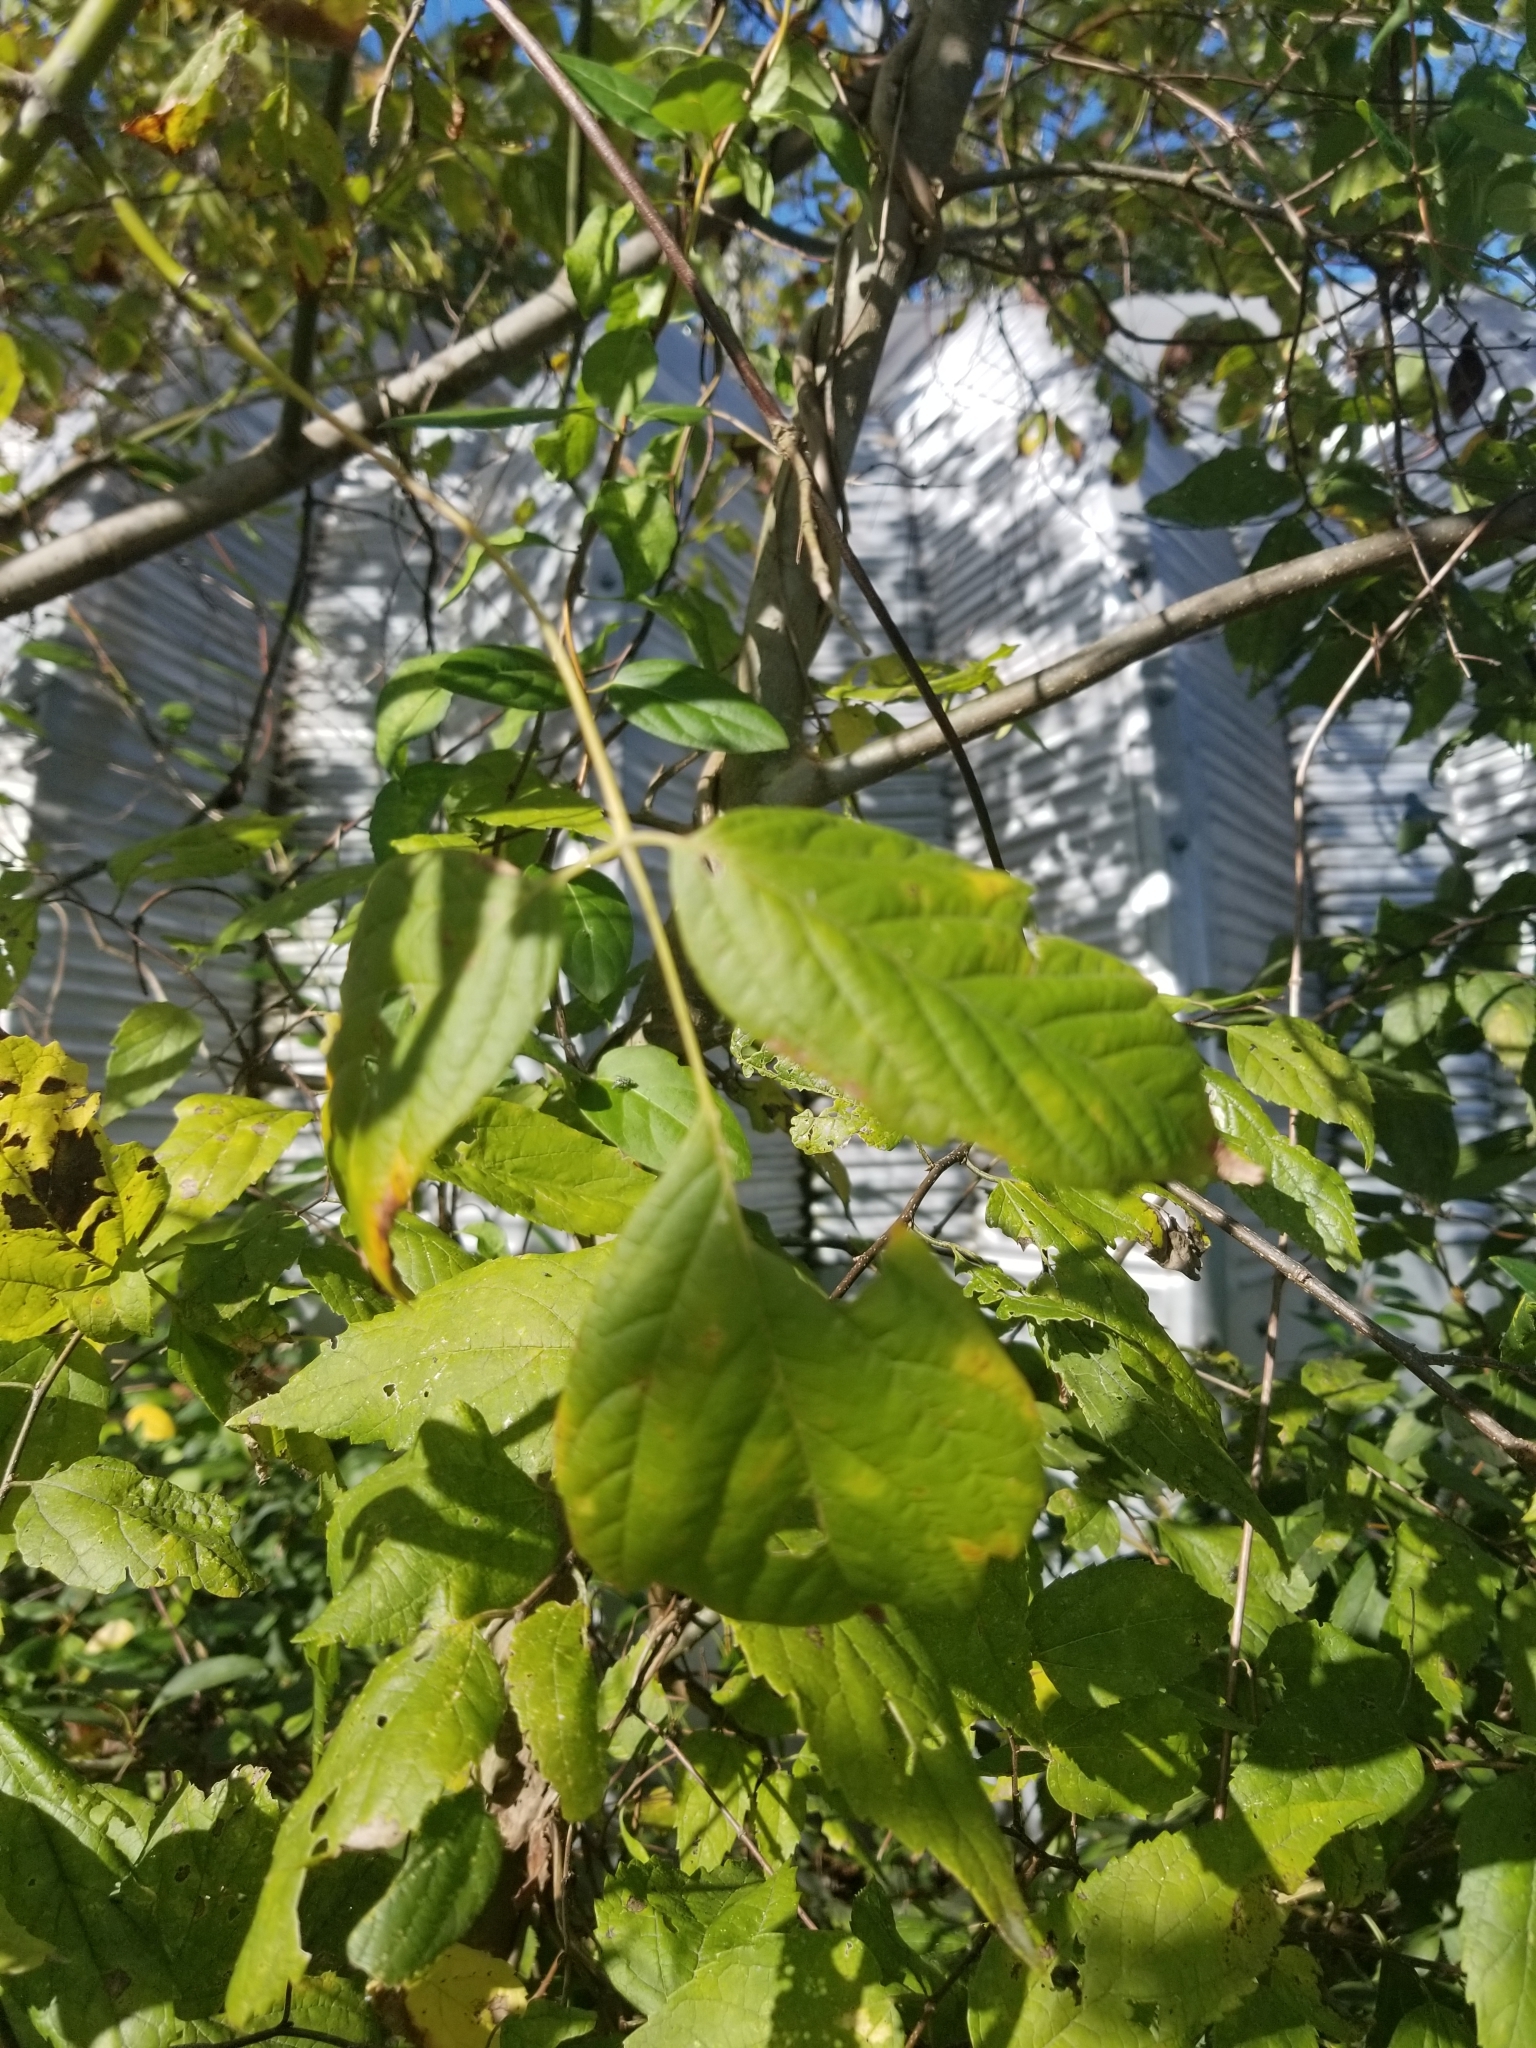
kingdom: Plantae
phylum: Tracheophyta
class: Magnoliopsida
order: Sapindales
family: Sapindaceae
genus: Acer
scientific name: Acer negundo
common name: Ashleaf maple
